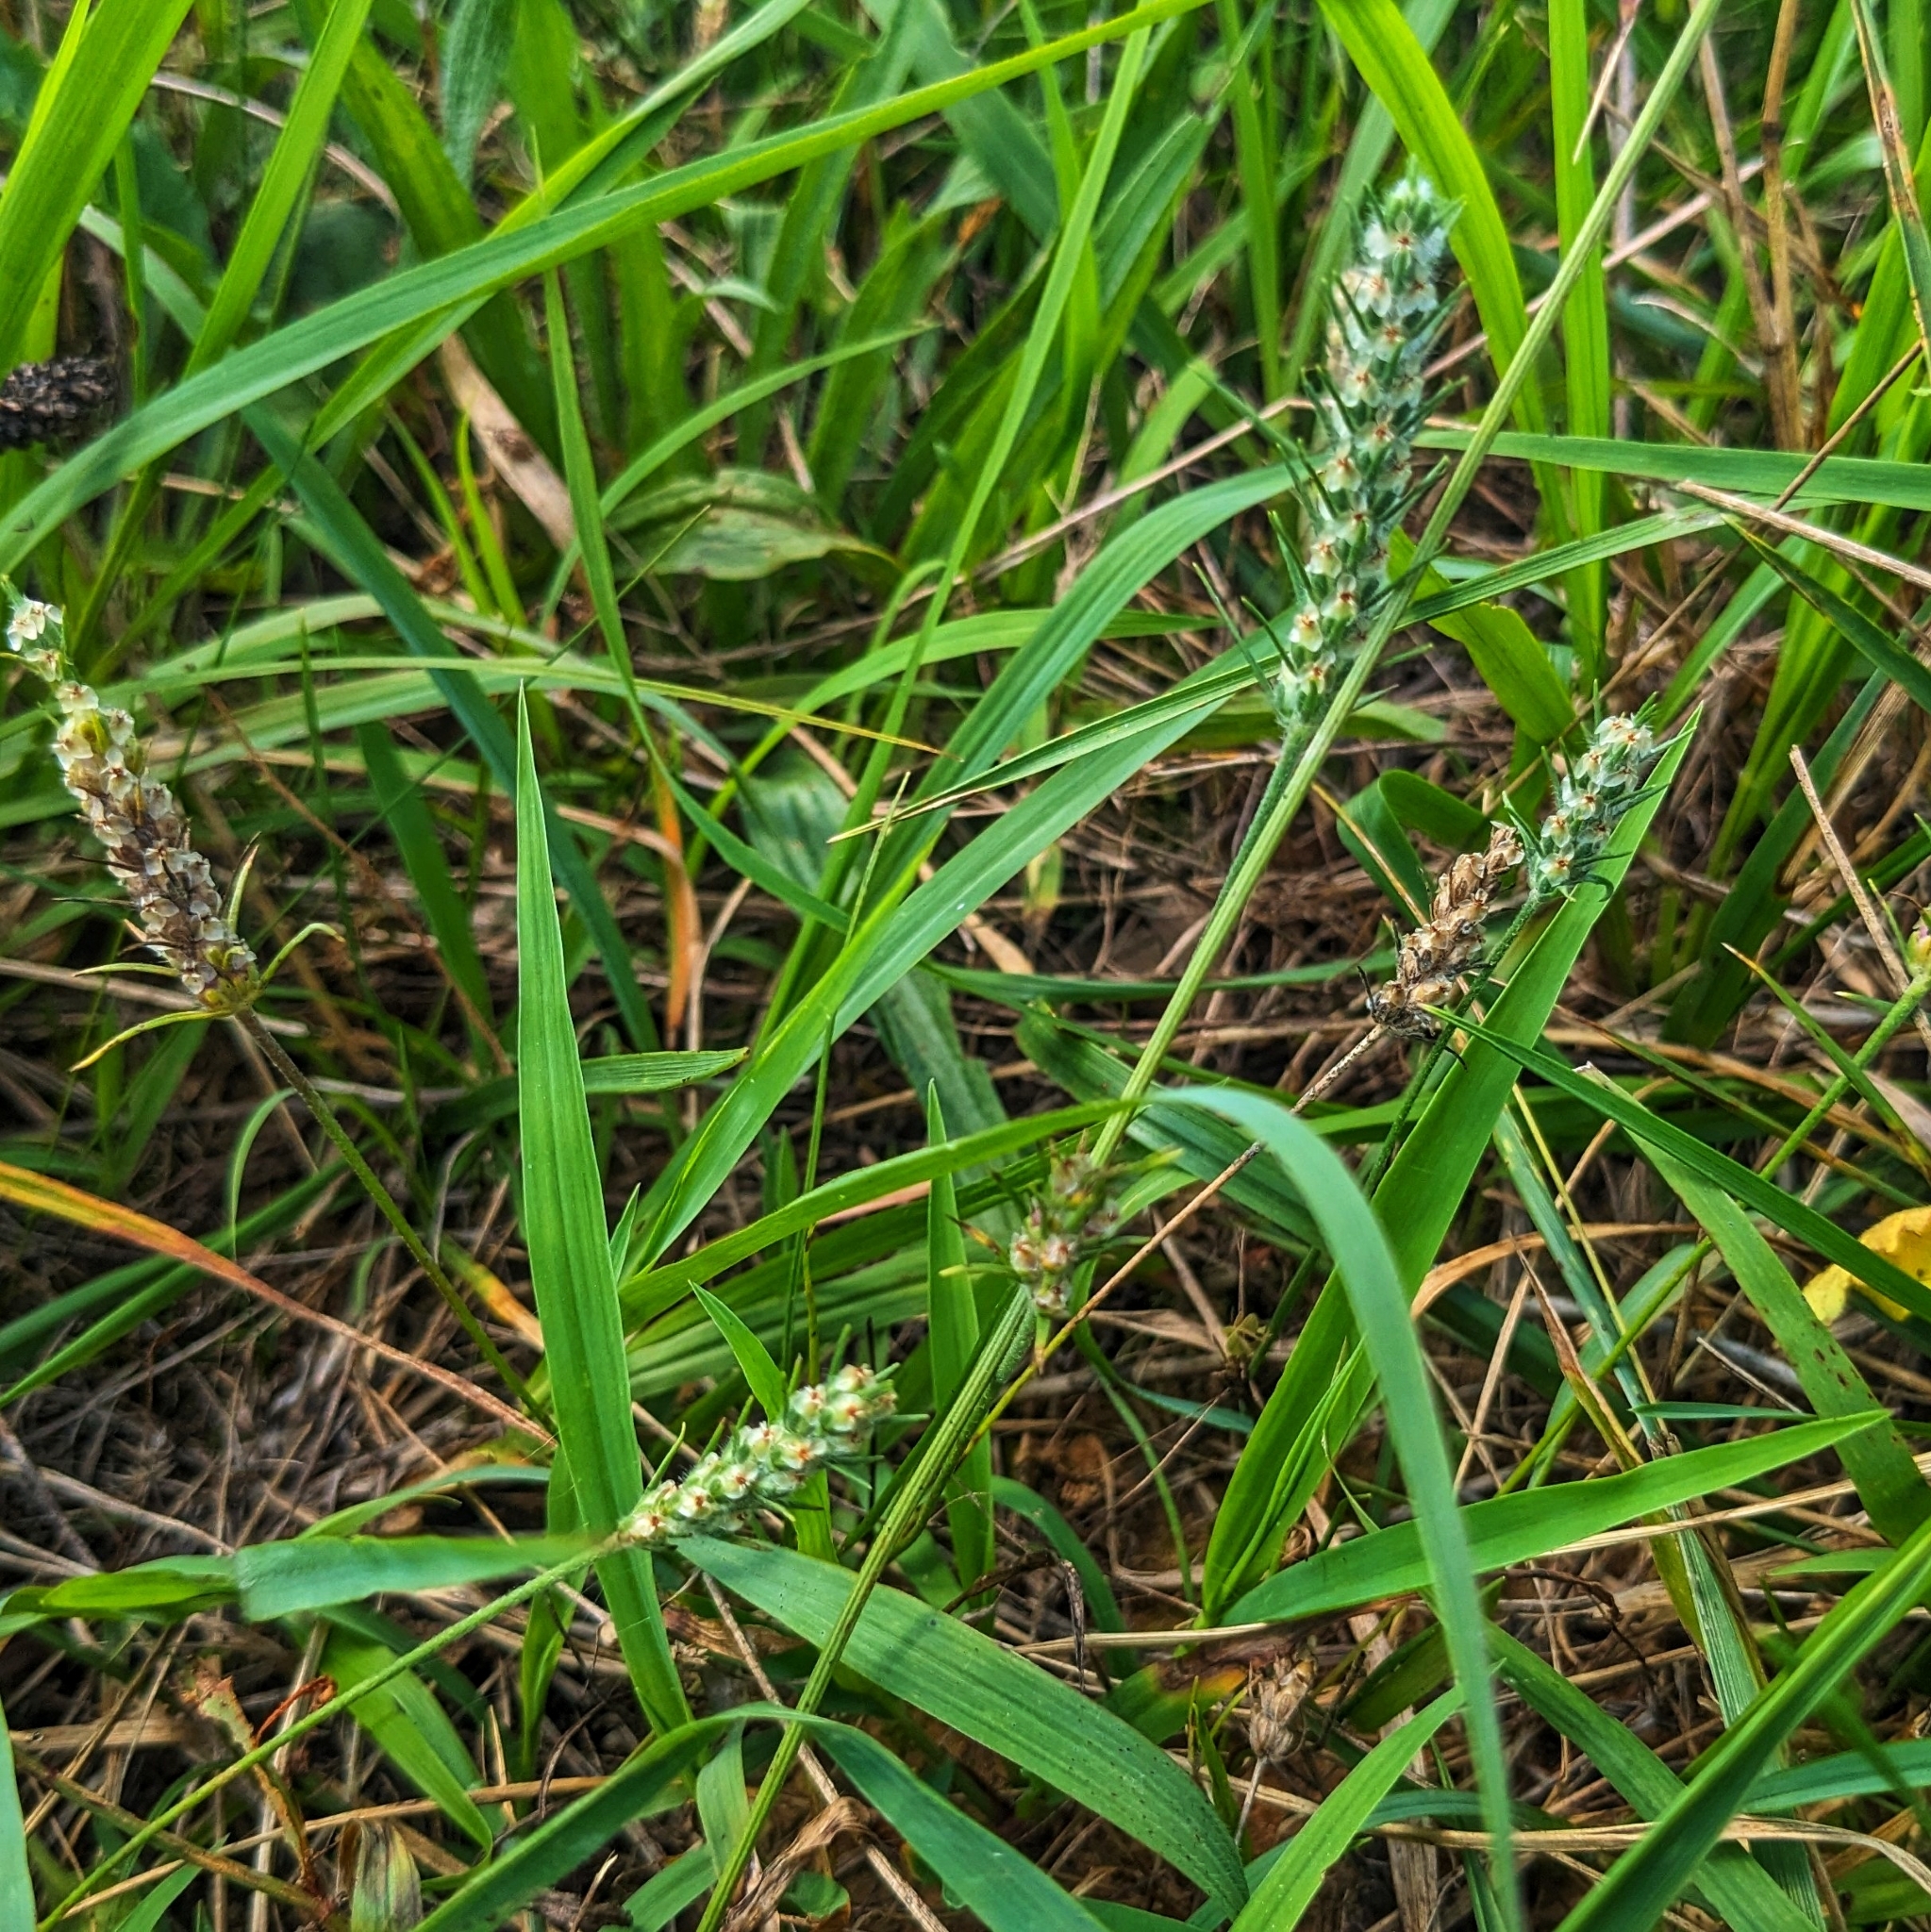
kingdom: Plantae
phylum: Tracheophyta
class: Magnoliopsida
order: Lamiales
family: Plantaginaceae
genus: Plantago
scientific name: Plantago aristata
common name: Bracted plantain
